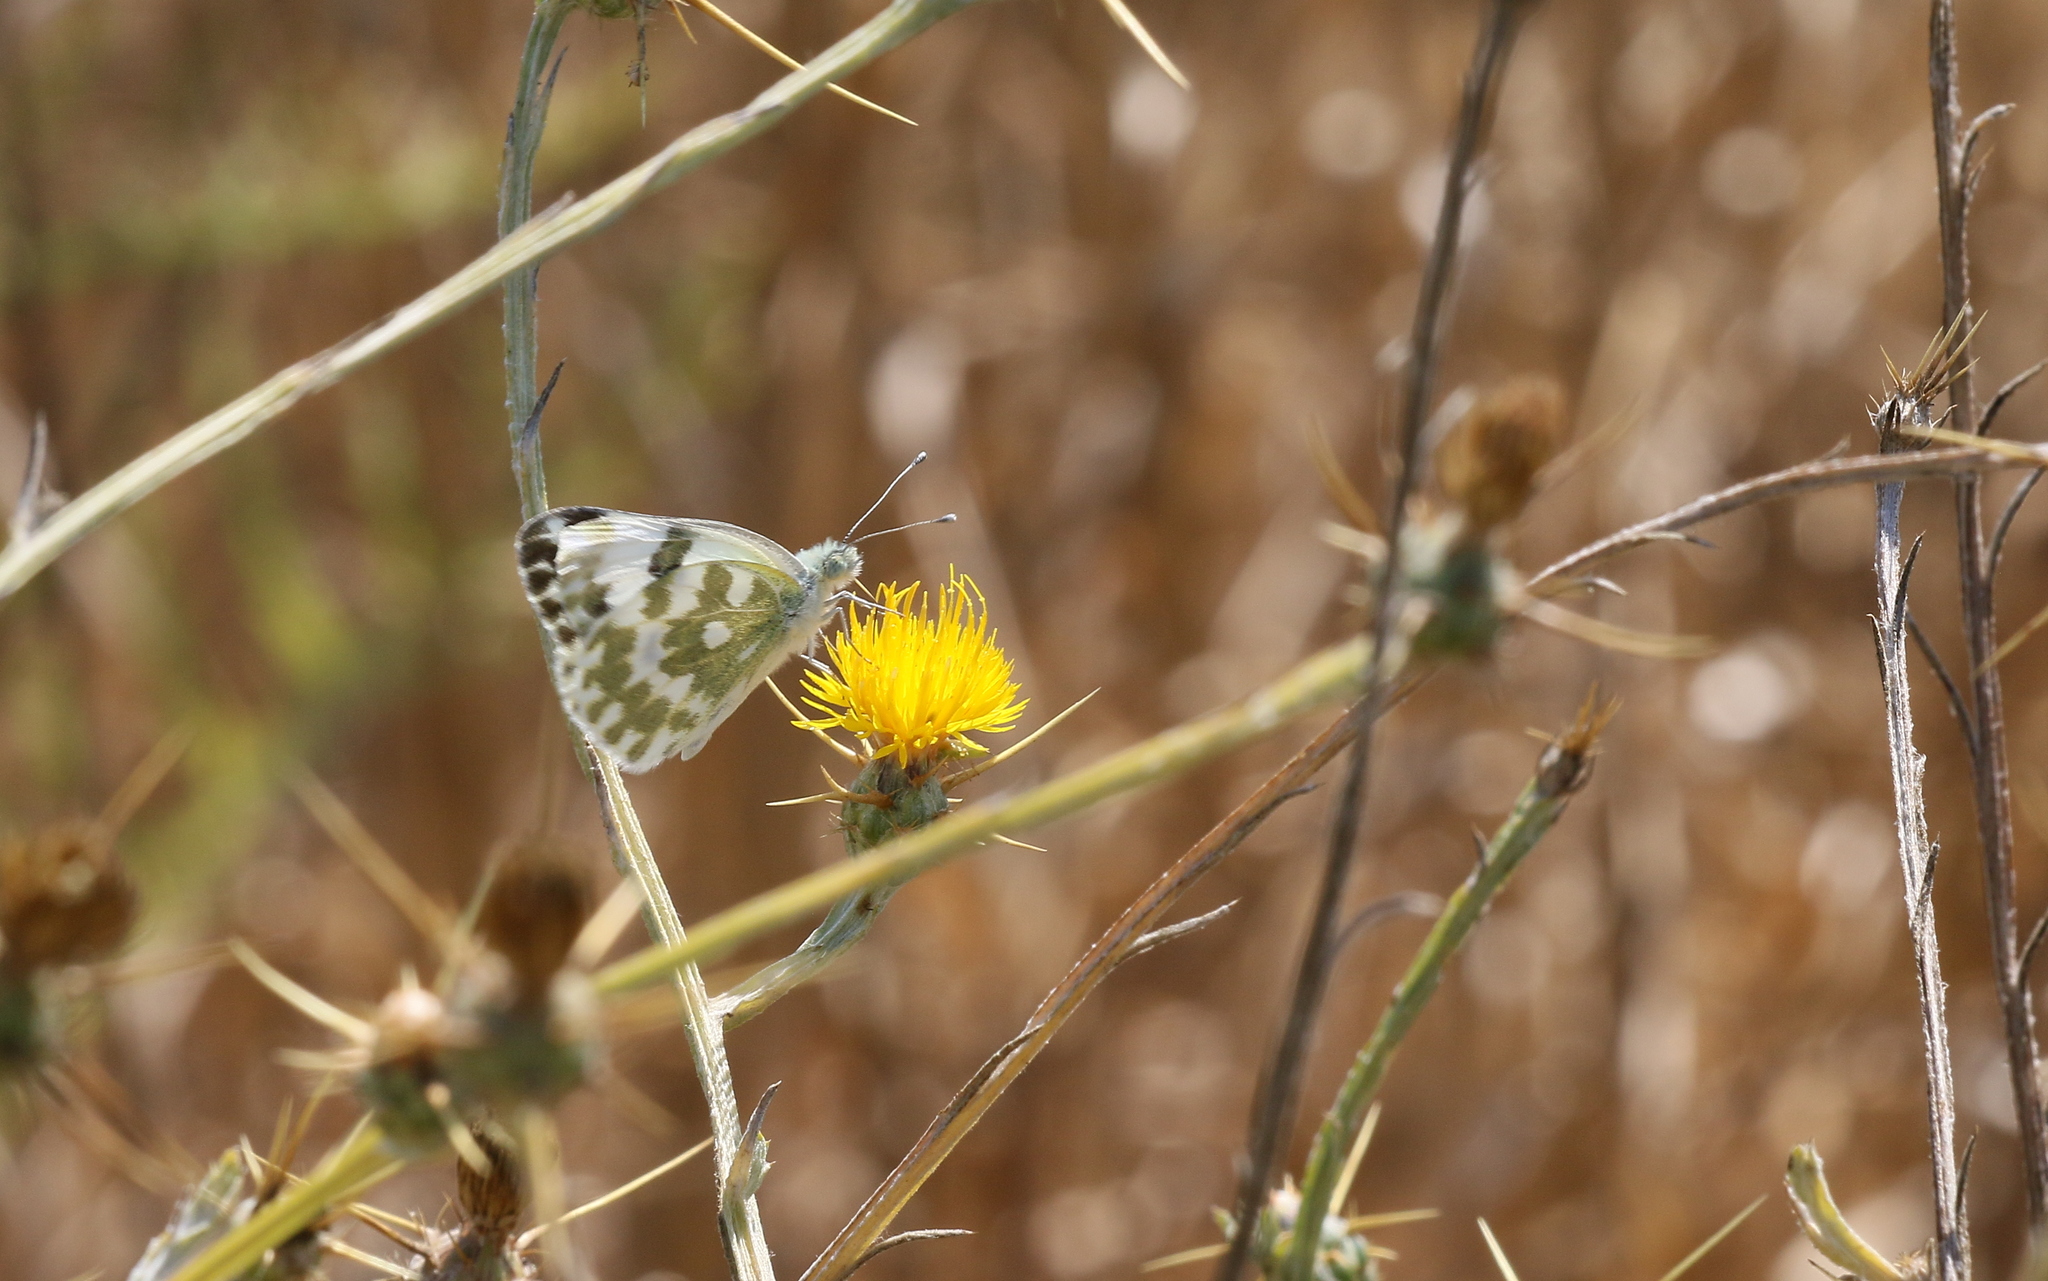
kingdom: Animalia
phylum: Arthropoda
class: Insecta
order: Lepidoptera
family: Pieridae
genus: Pontia
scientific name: Pontia edusa
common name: Eastern bath white
